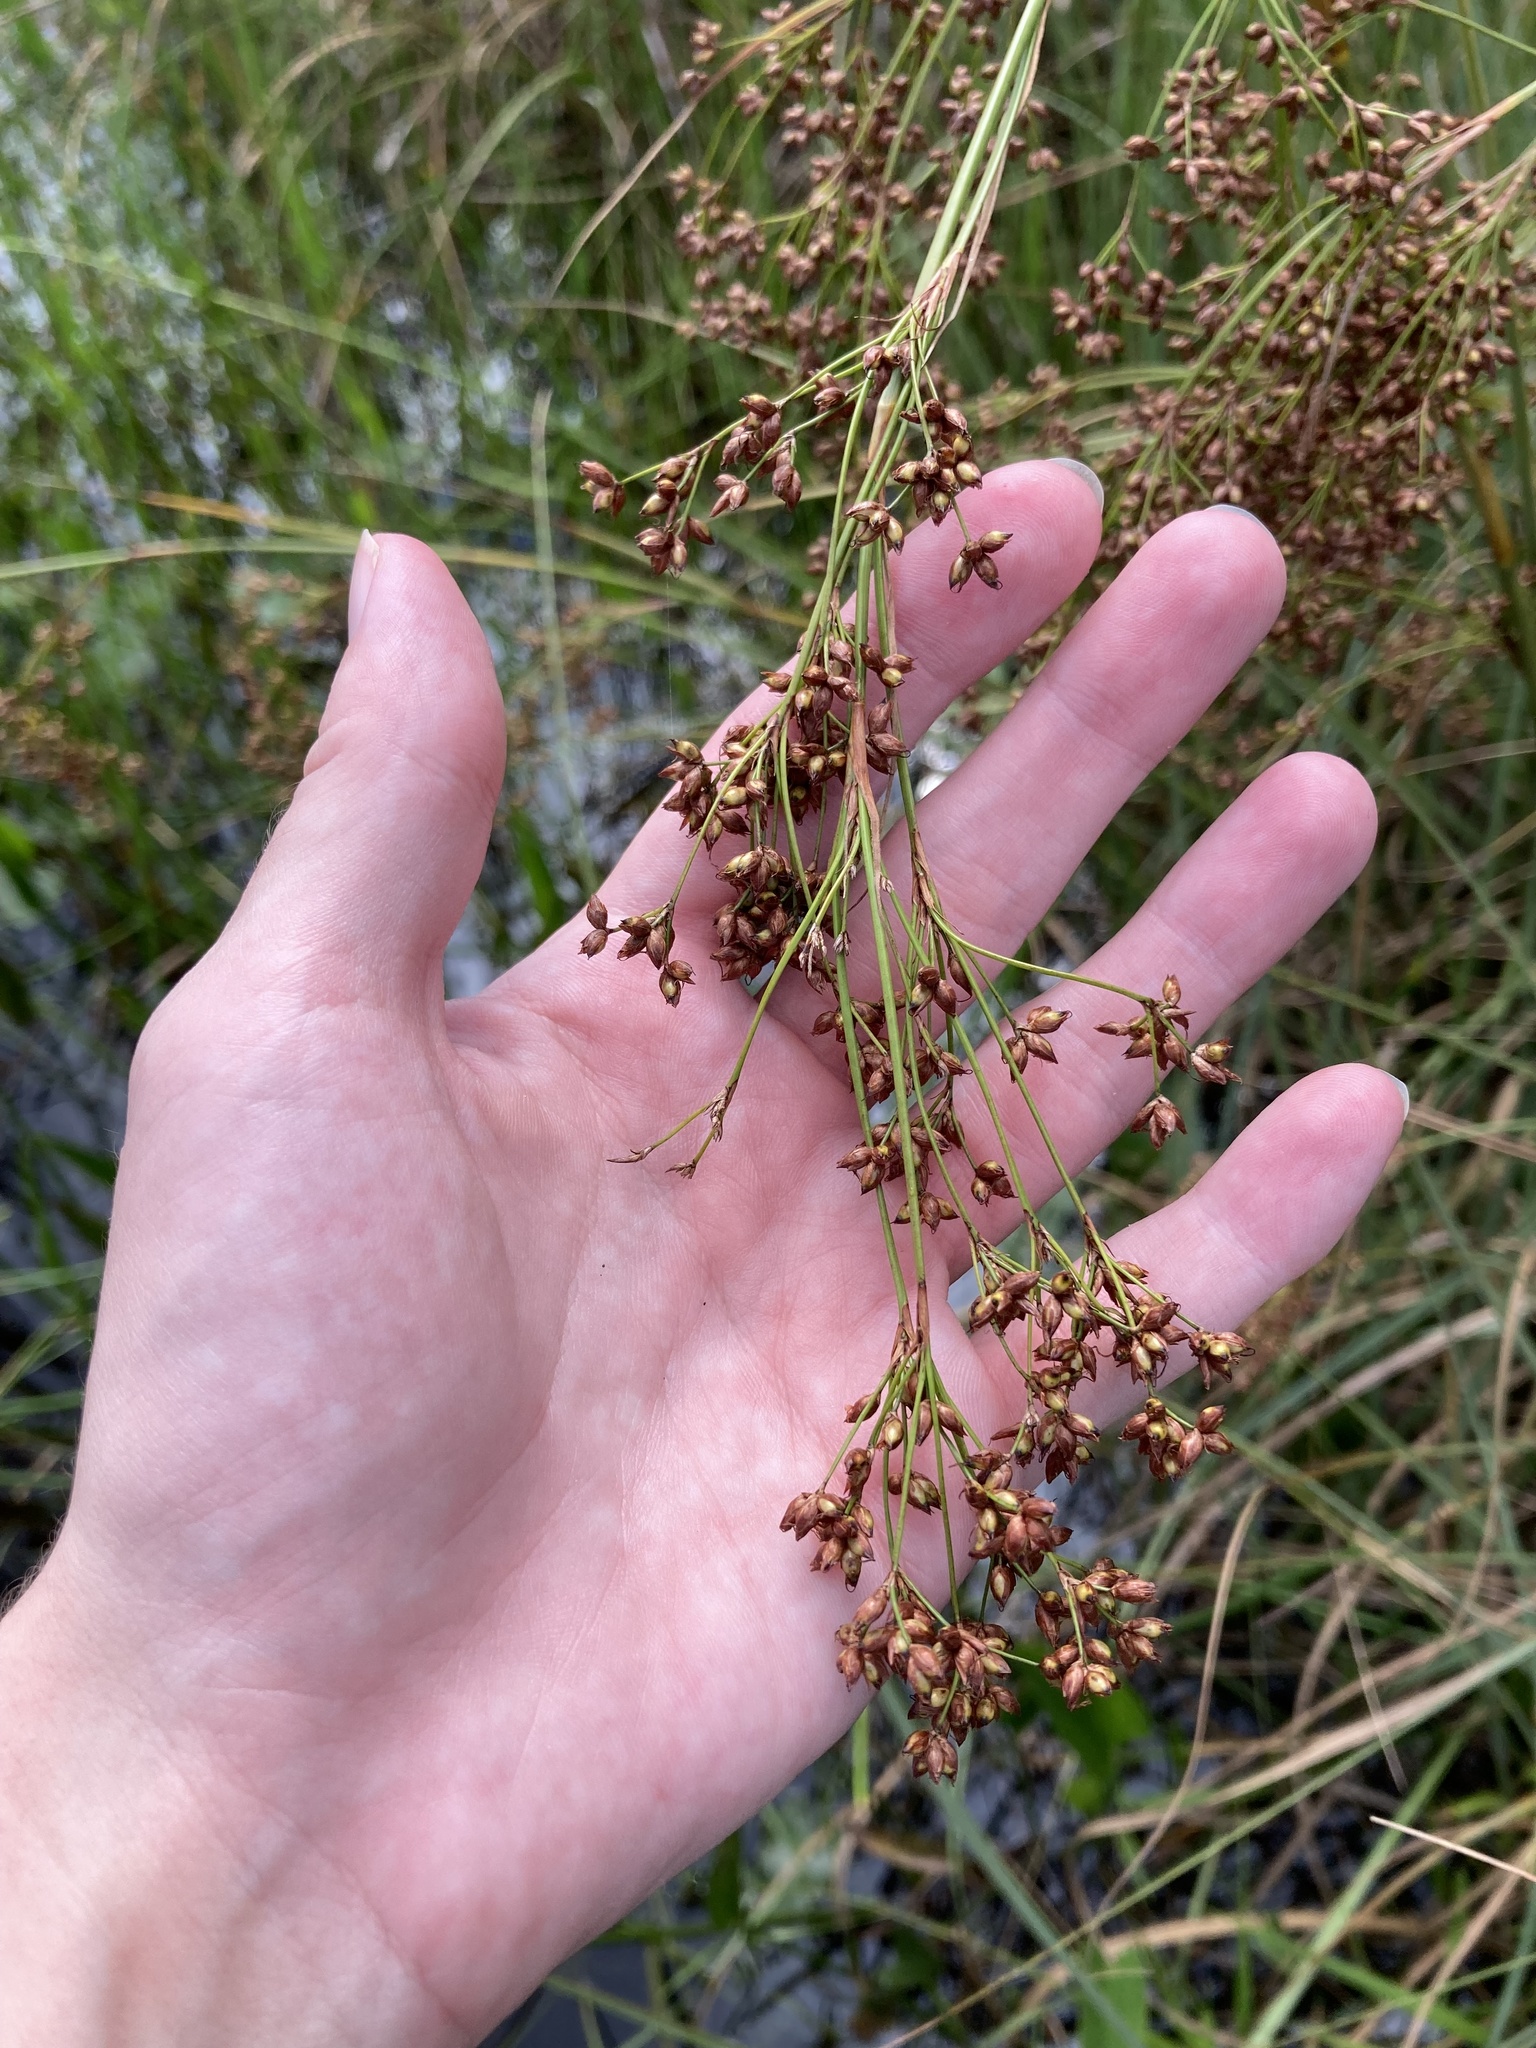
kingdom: Plantae
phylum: Tracheophyta
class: Liliopsida
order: Poales
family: Cyperaceae
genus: Cladium
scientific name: Cladium mariscus
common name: Great fen-sedge
